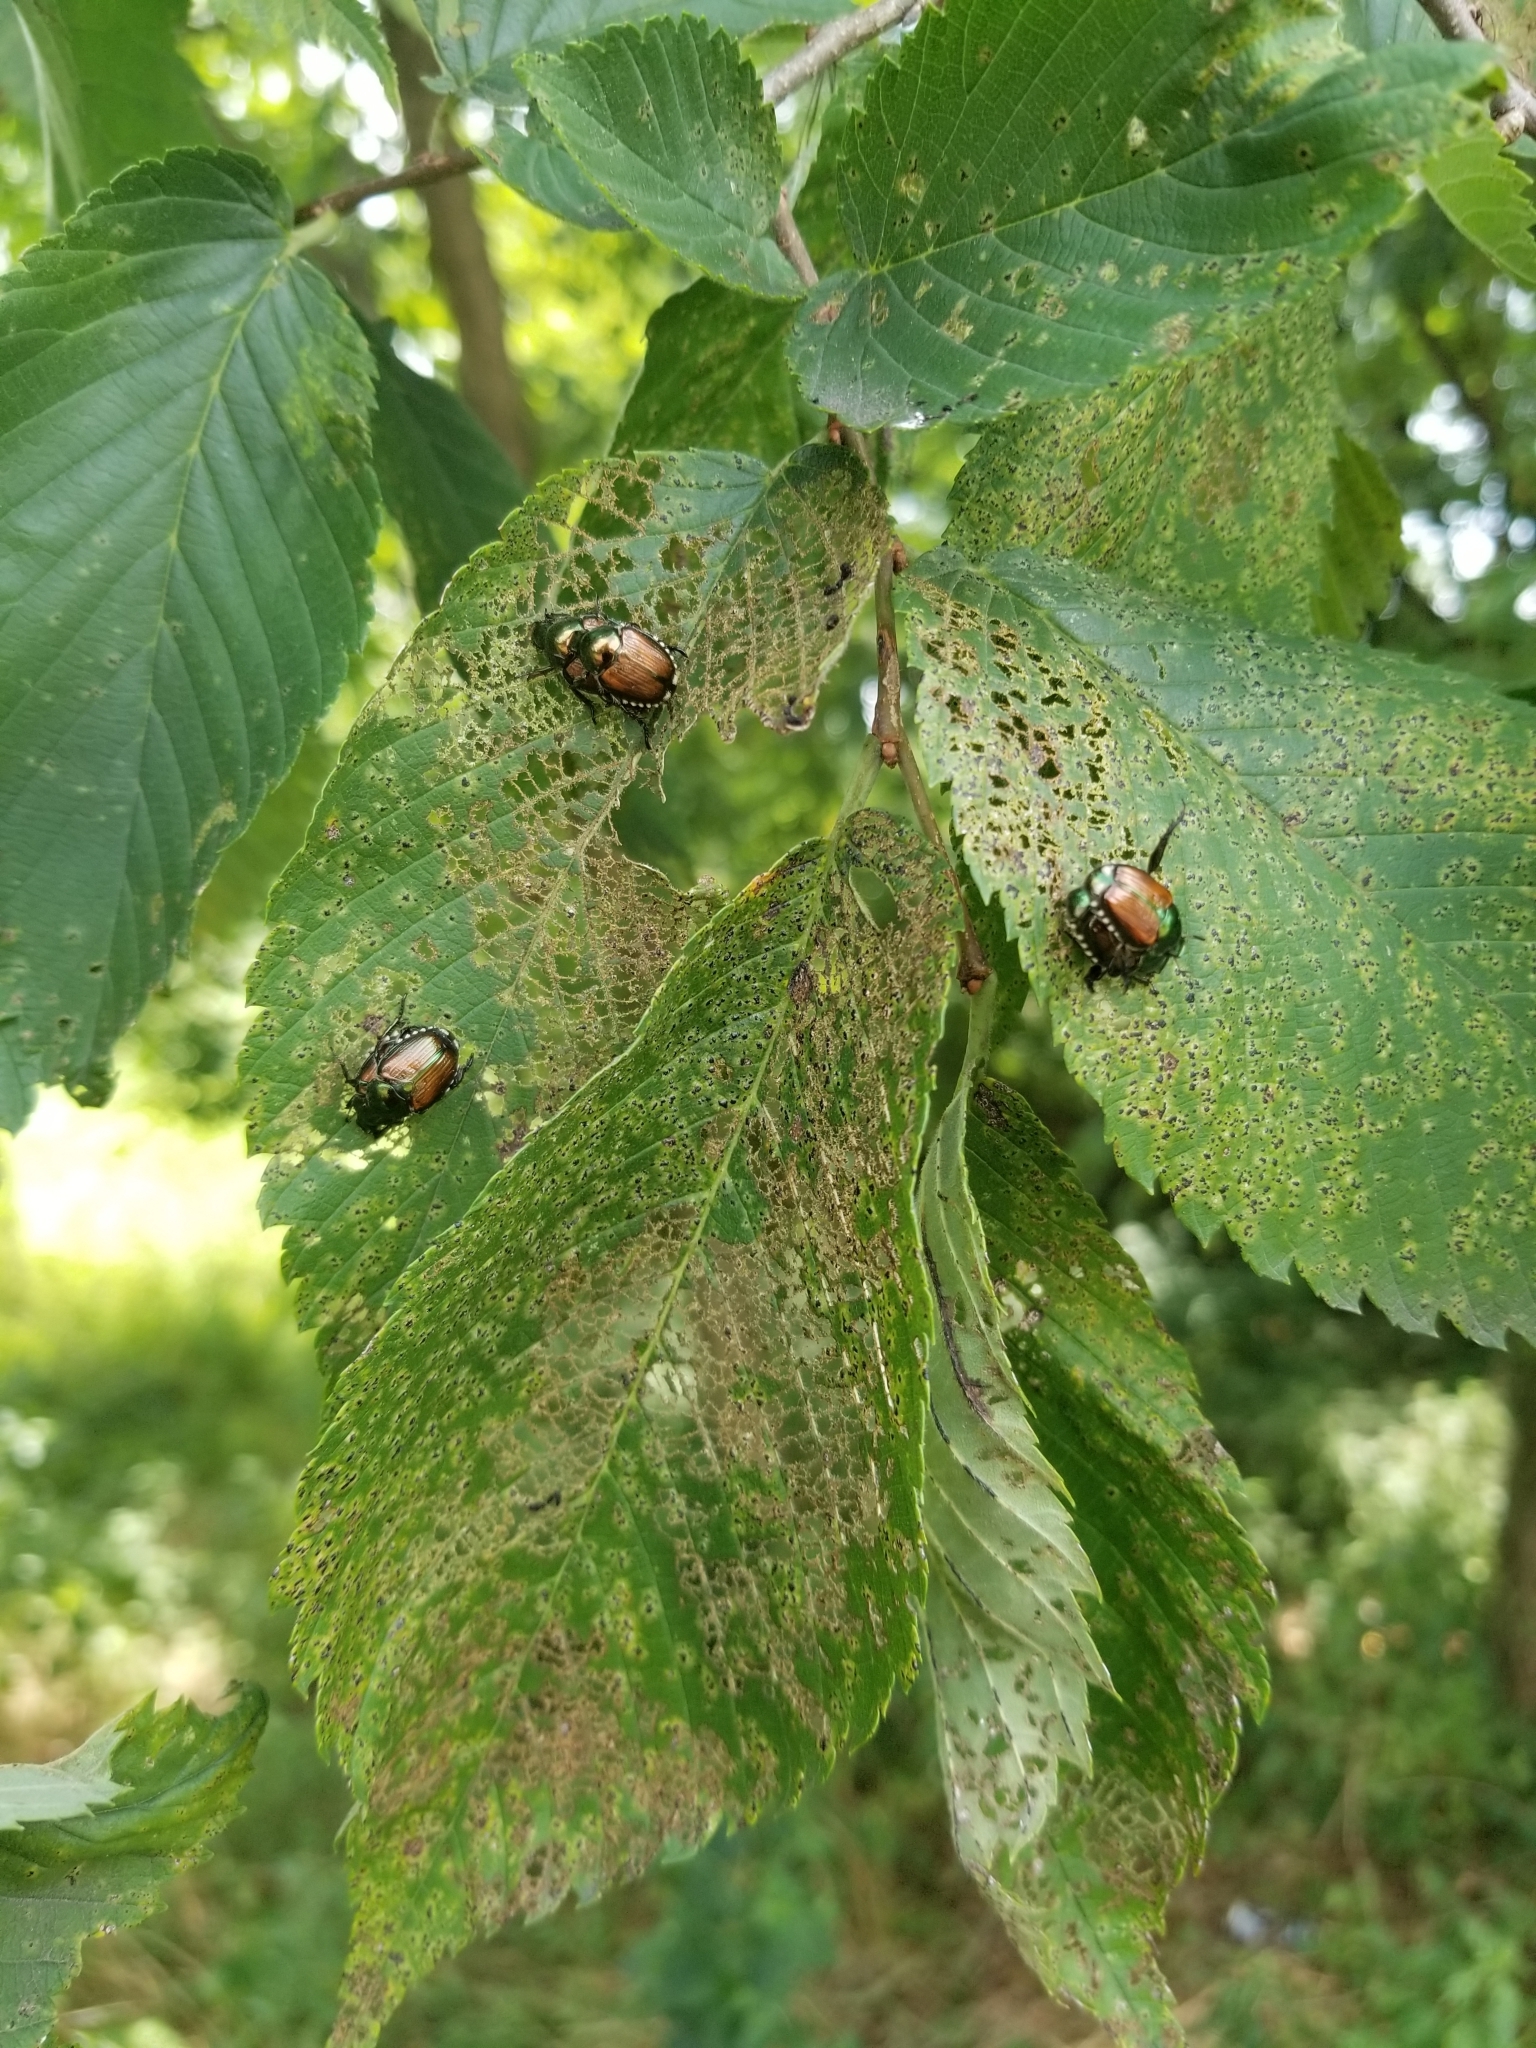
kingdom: Animalia
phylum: Arthropoda
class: Insecta
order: Coleoptera
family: Scarabaeidae
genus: Popillia
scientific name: Popillia japonica
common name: Japanese beetle
